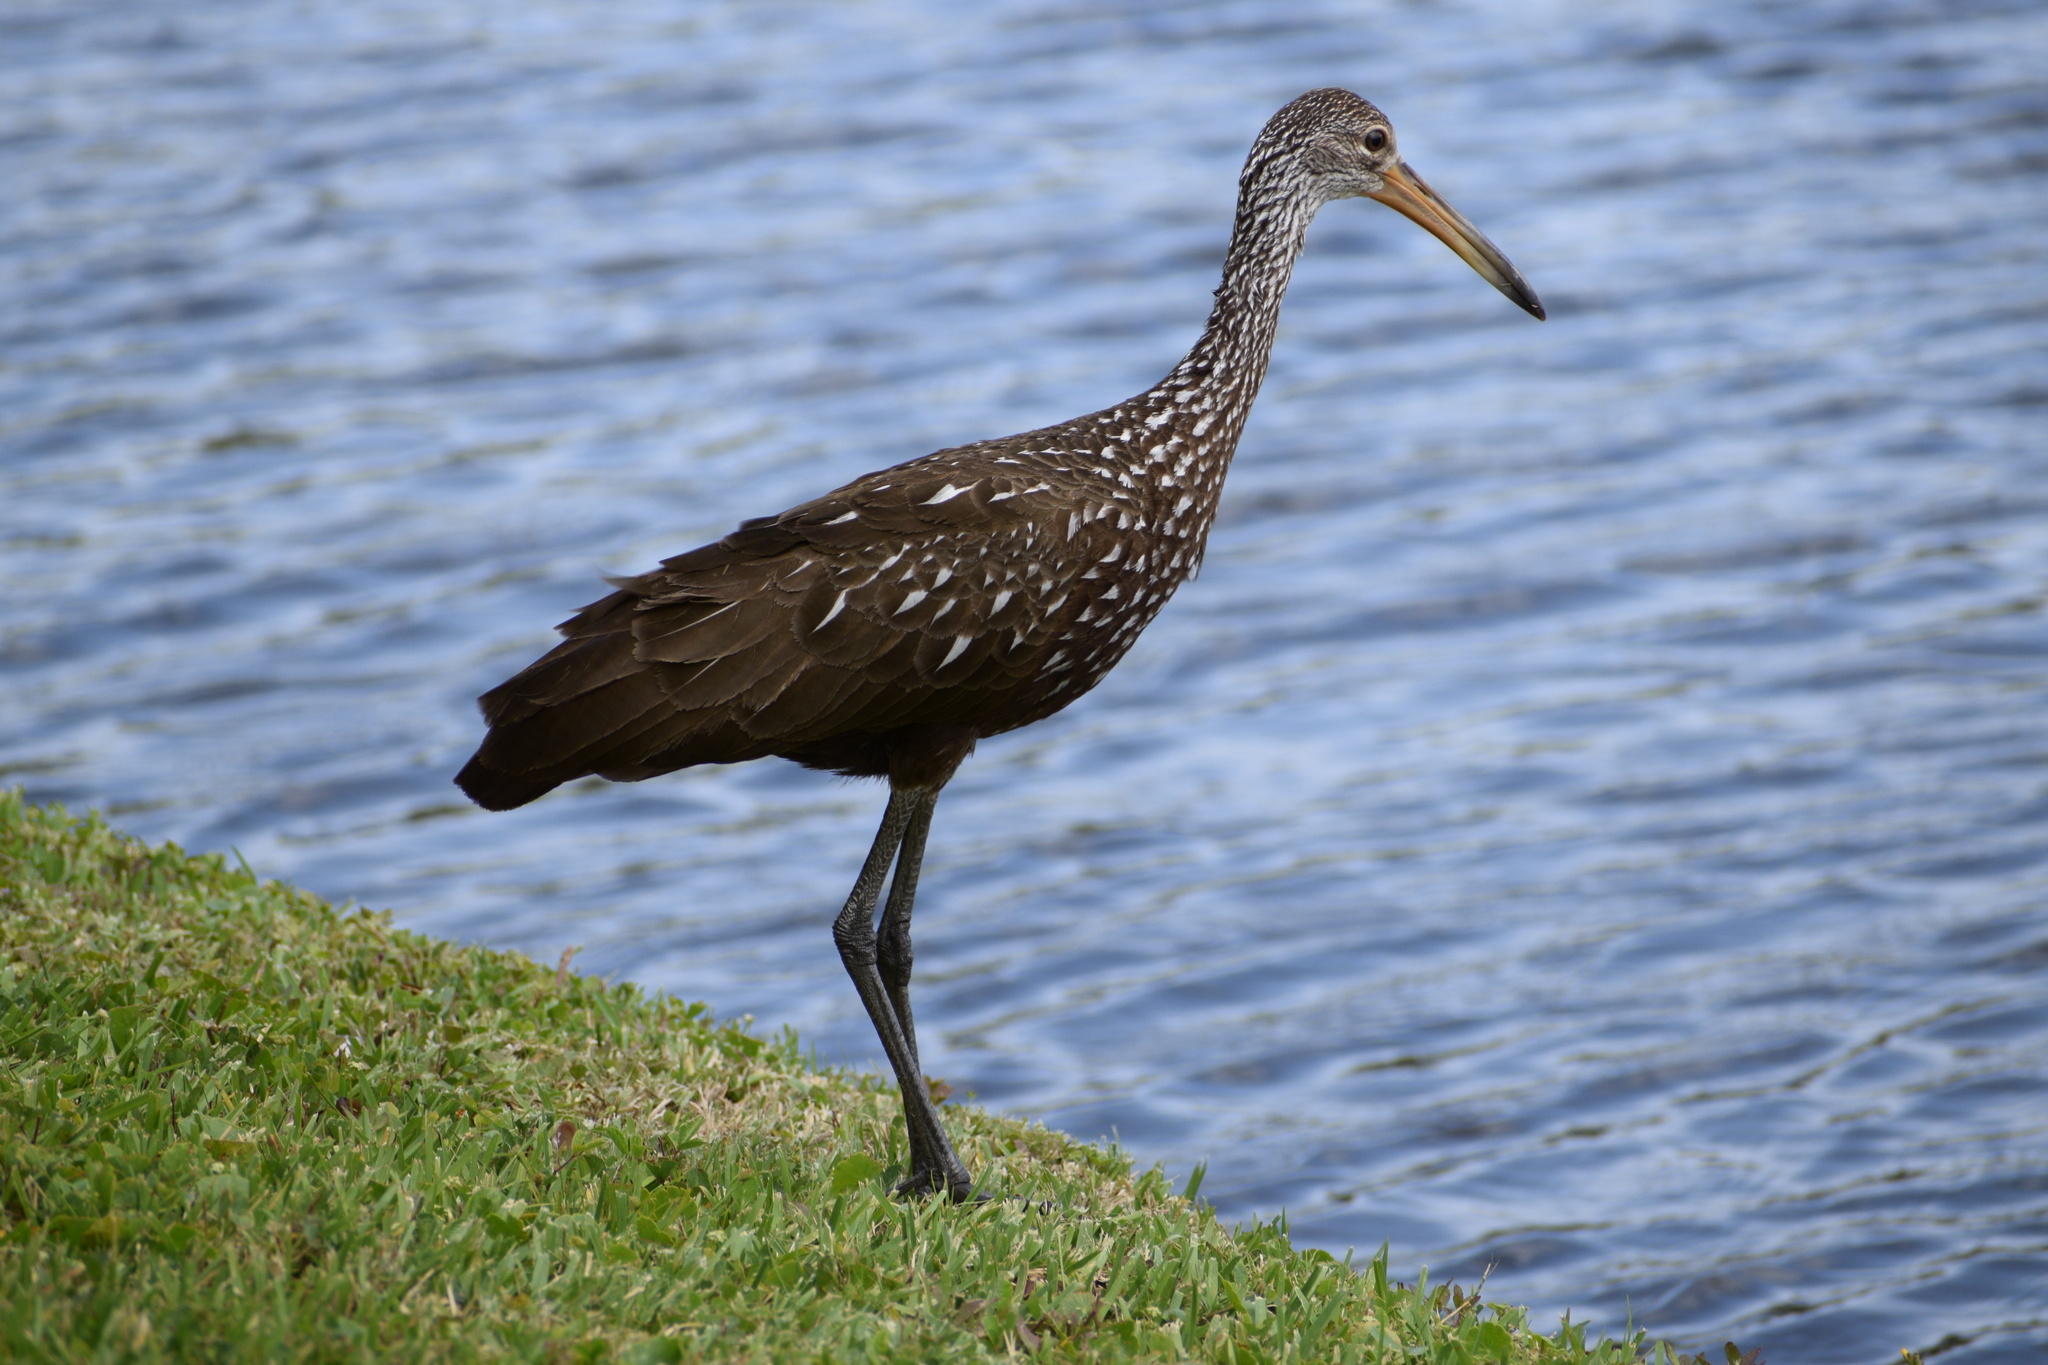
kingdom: Animalia
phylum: Chordata
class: Aves
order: Gruiformes
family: Aramidae
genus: Aramus
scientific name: Aramus guarauna
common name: Limpkin
